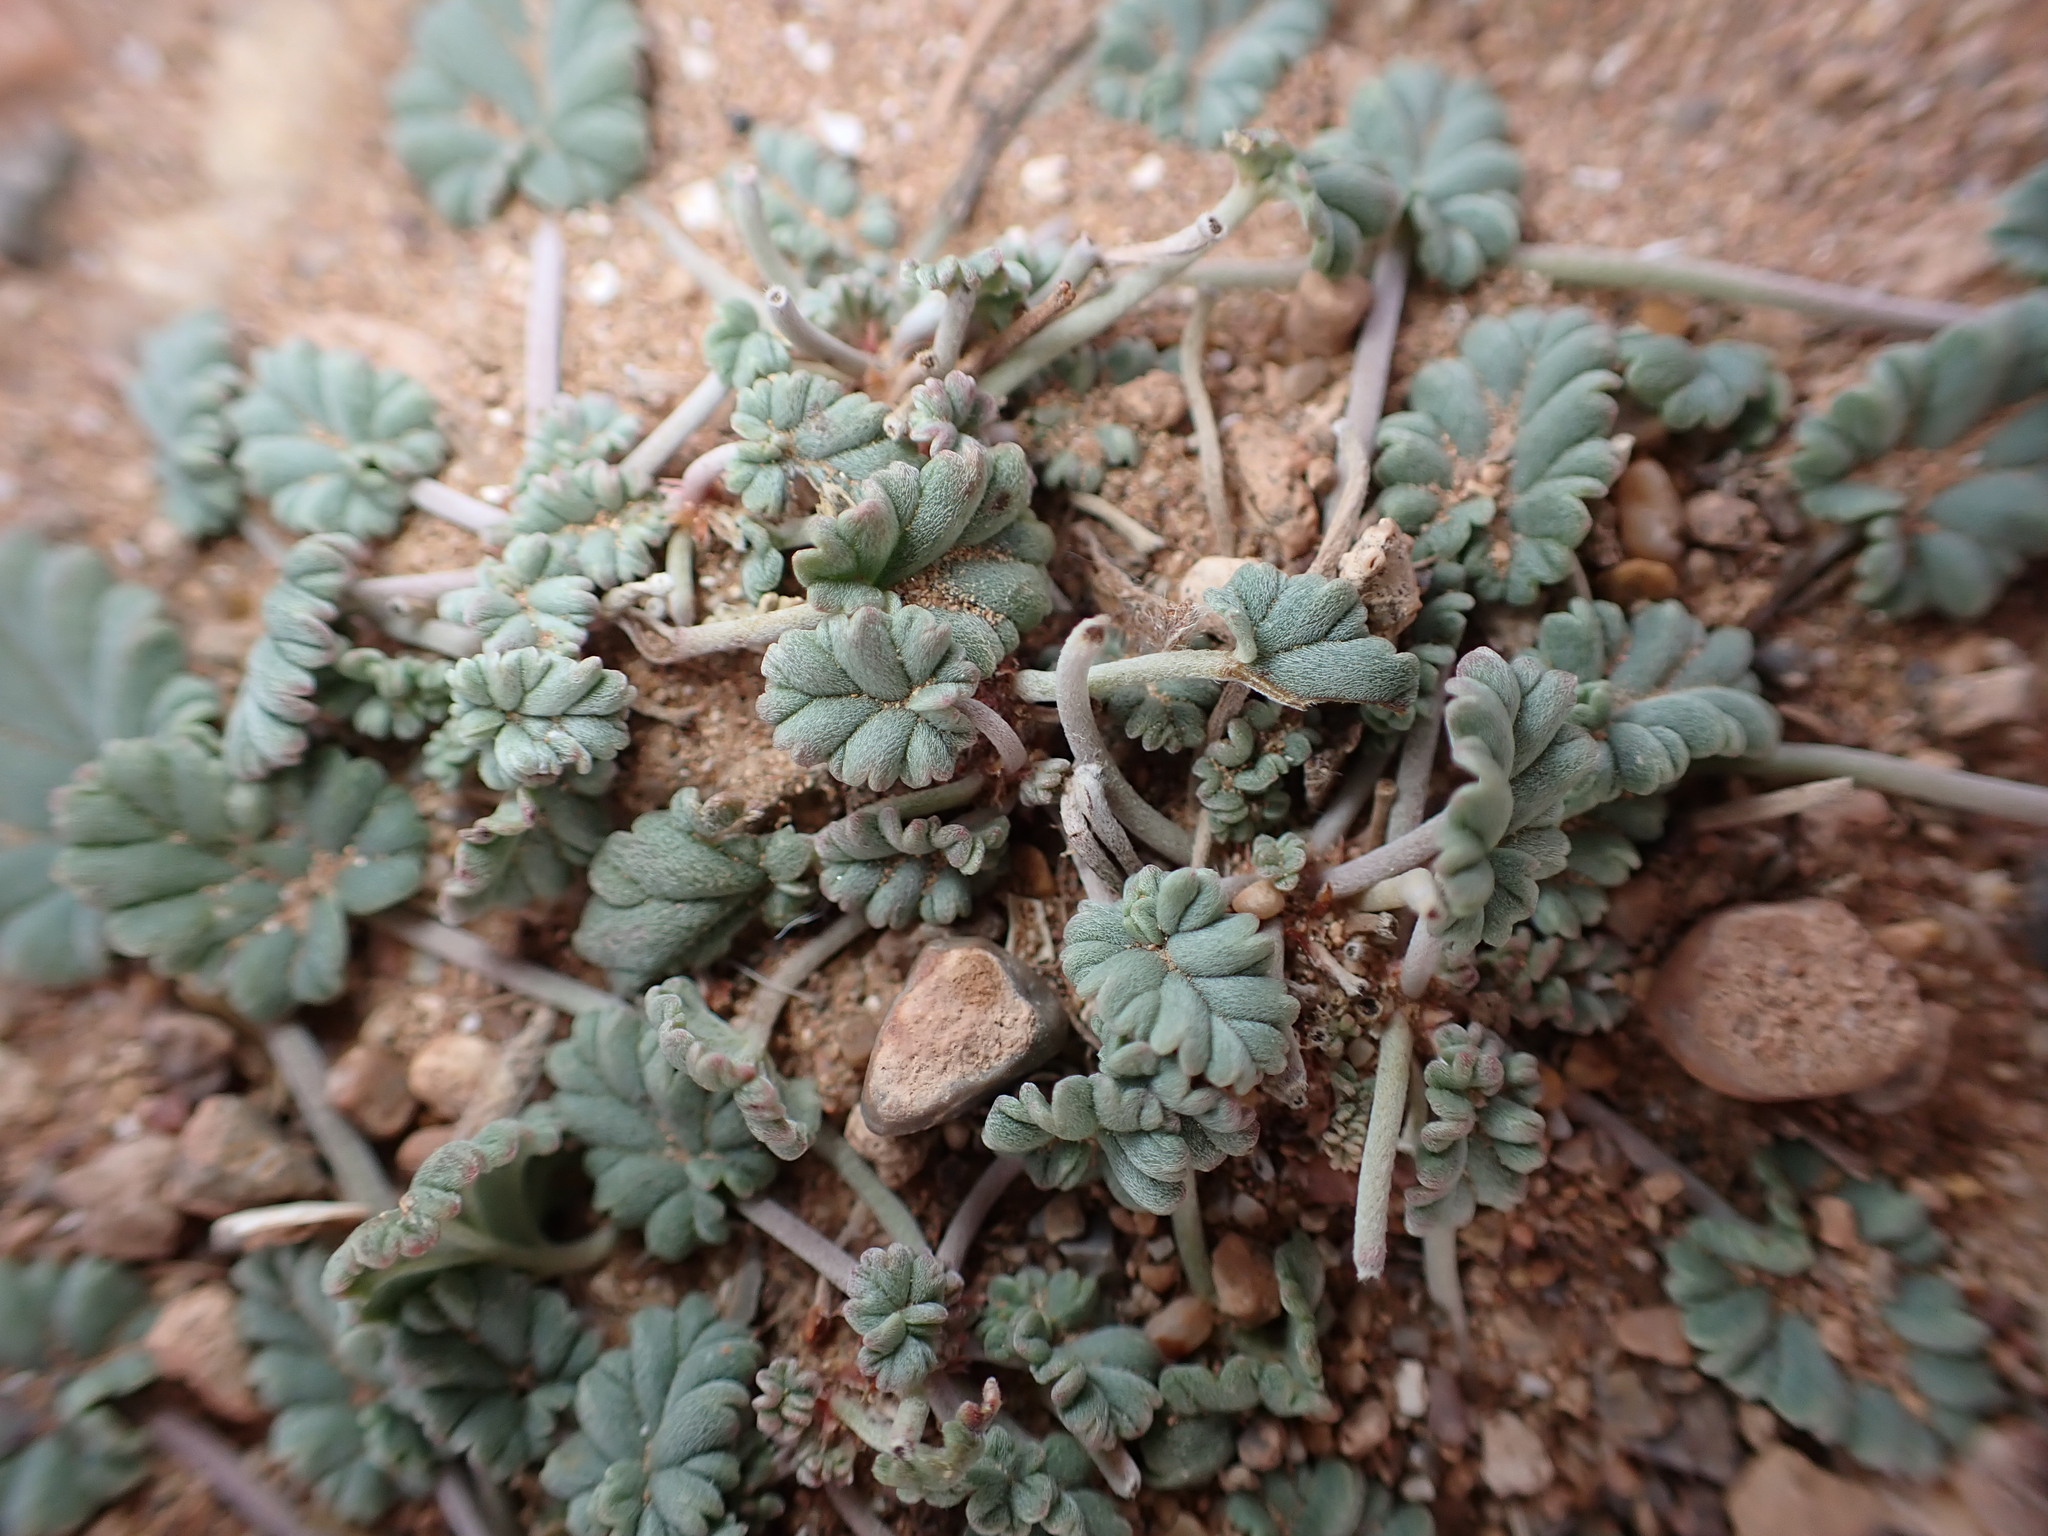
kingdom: Plantae
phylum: Tracheophyta
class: Magnoliopsida
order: Geraniales
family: Geraniaceae
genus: Erodium
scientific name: Erodium guttatum
